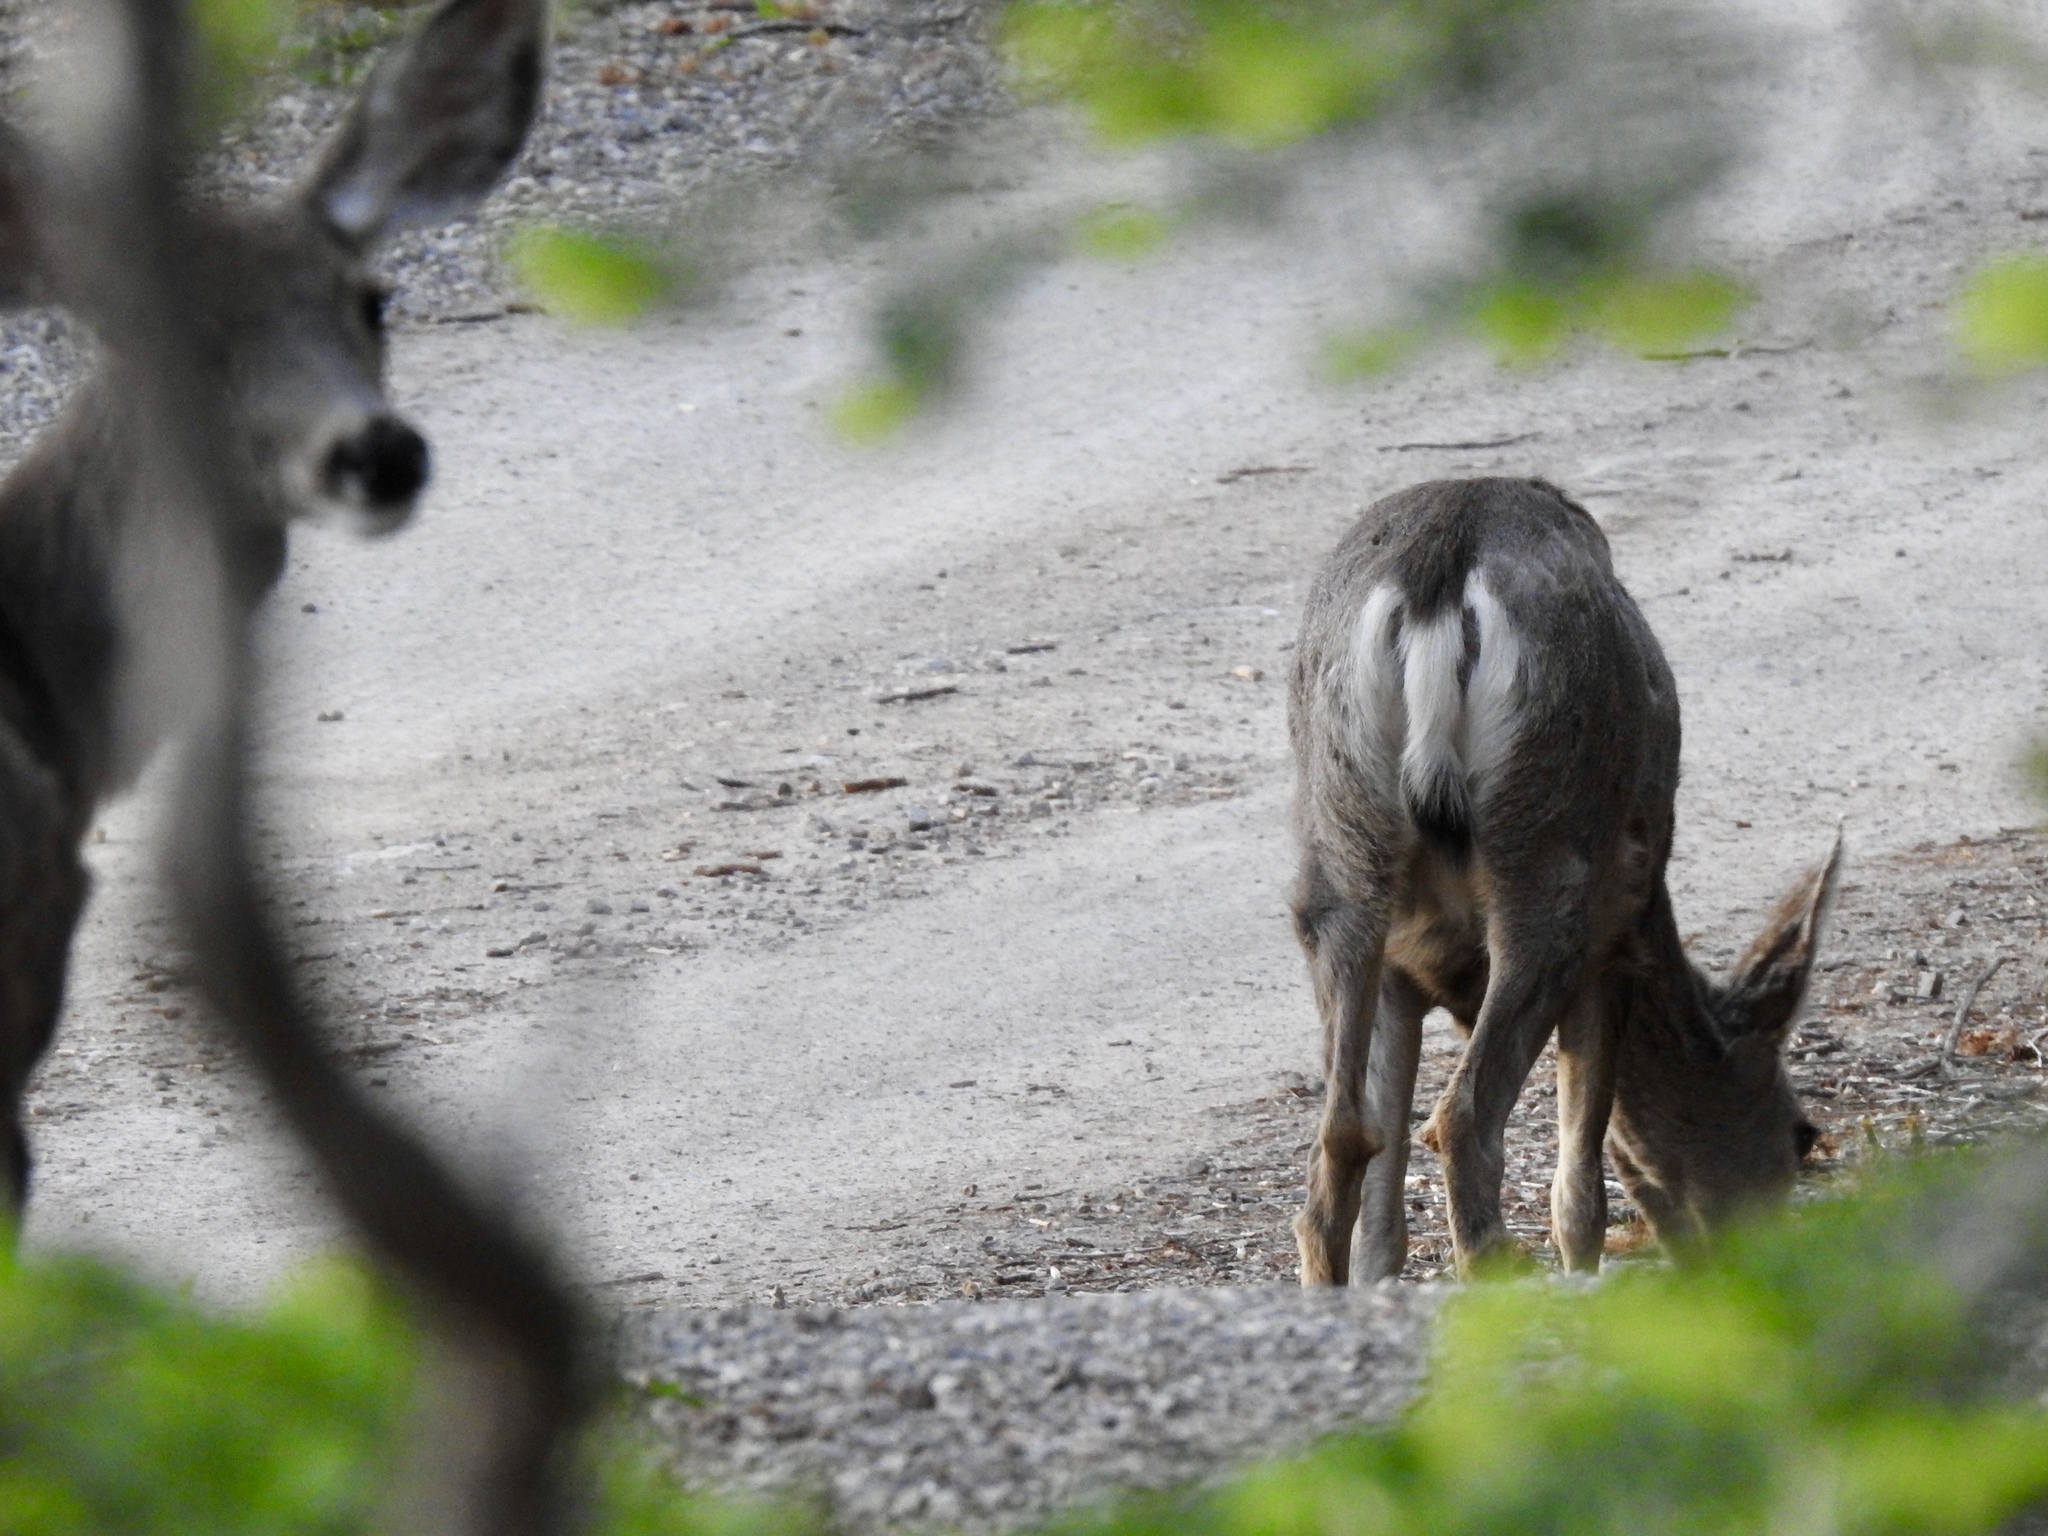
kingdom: Animalia
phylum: Chordata
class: Mammalia
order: Artiodactyla
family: Cervidae
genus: Odocoileus
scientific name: Odocoileus hemionus
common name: Mule deer
